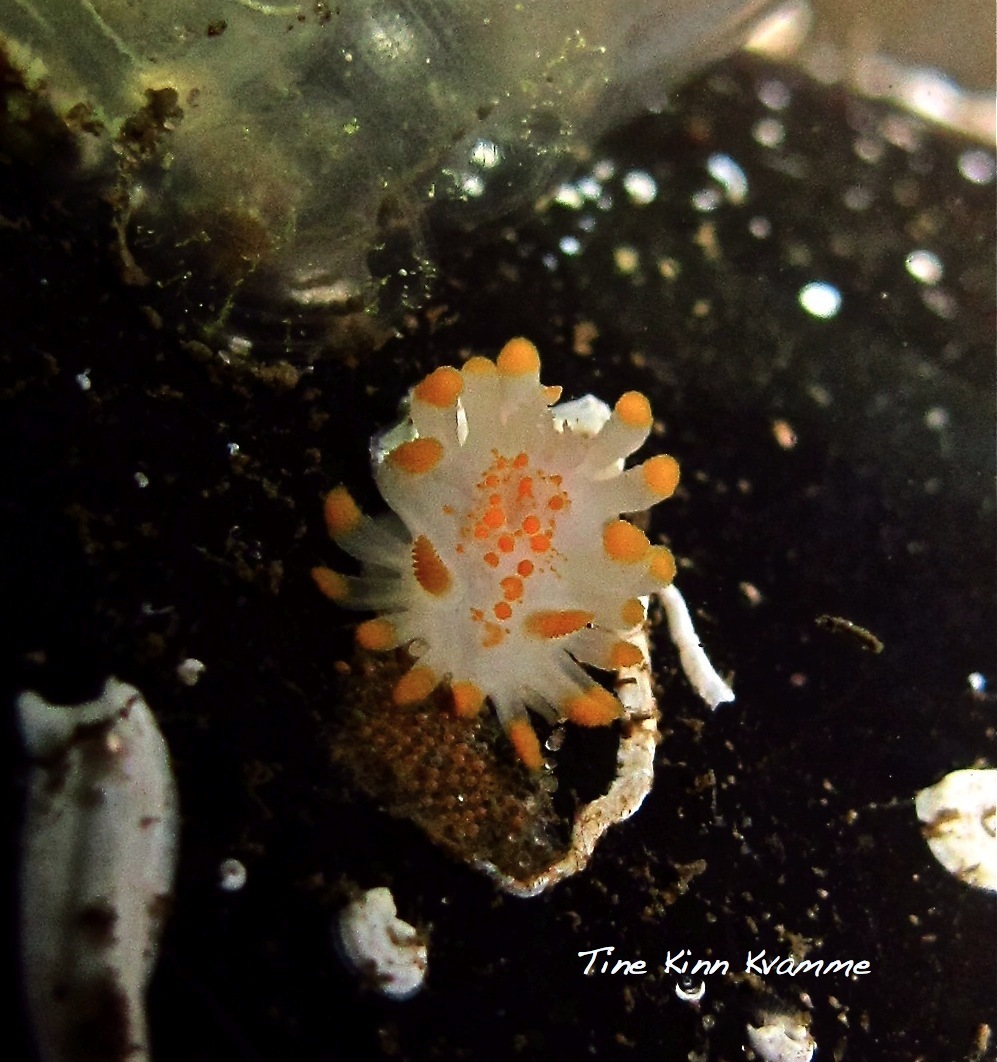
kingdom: Animalia
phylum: Mollusca
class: Gastropoda
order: Nudibranchia
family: Polyceridae
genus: Limacia
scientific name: Limacia clavigera
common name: Orange-clubbed sea slug
